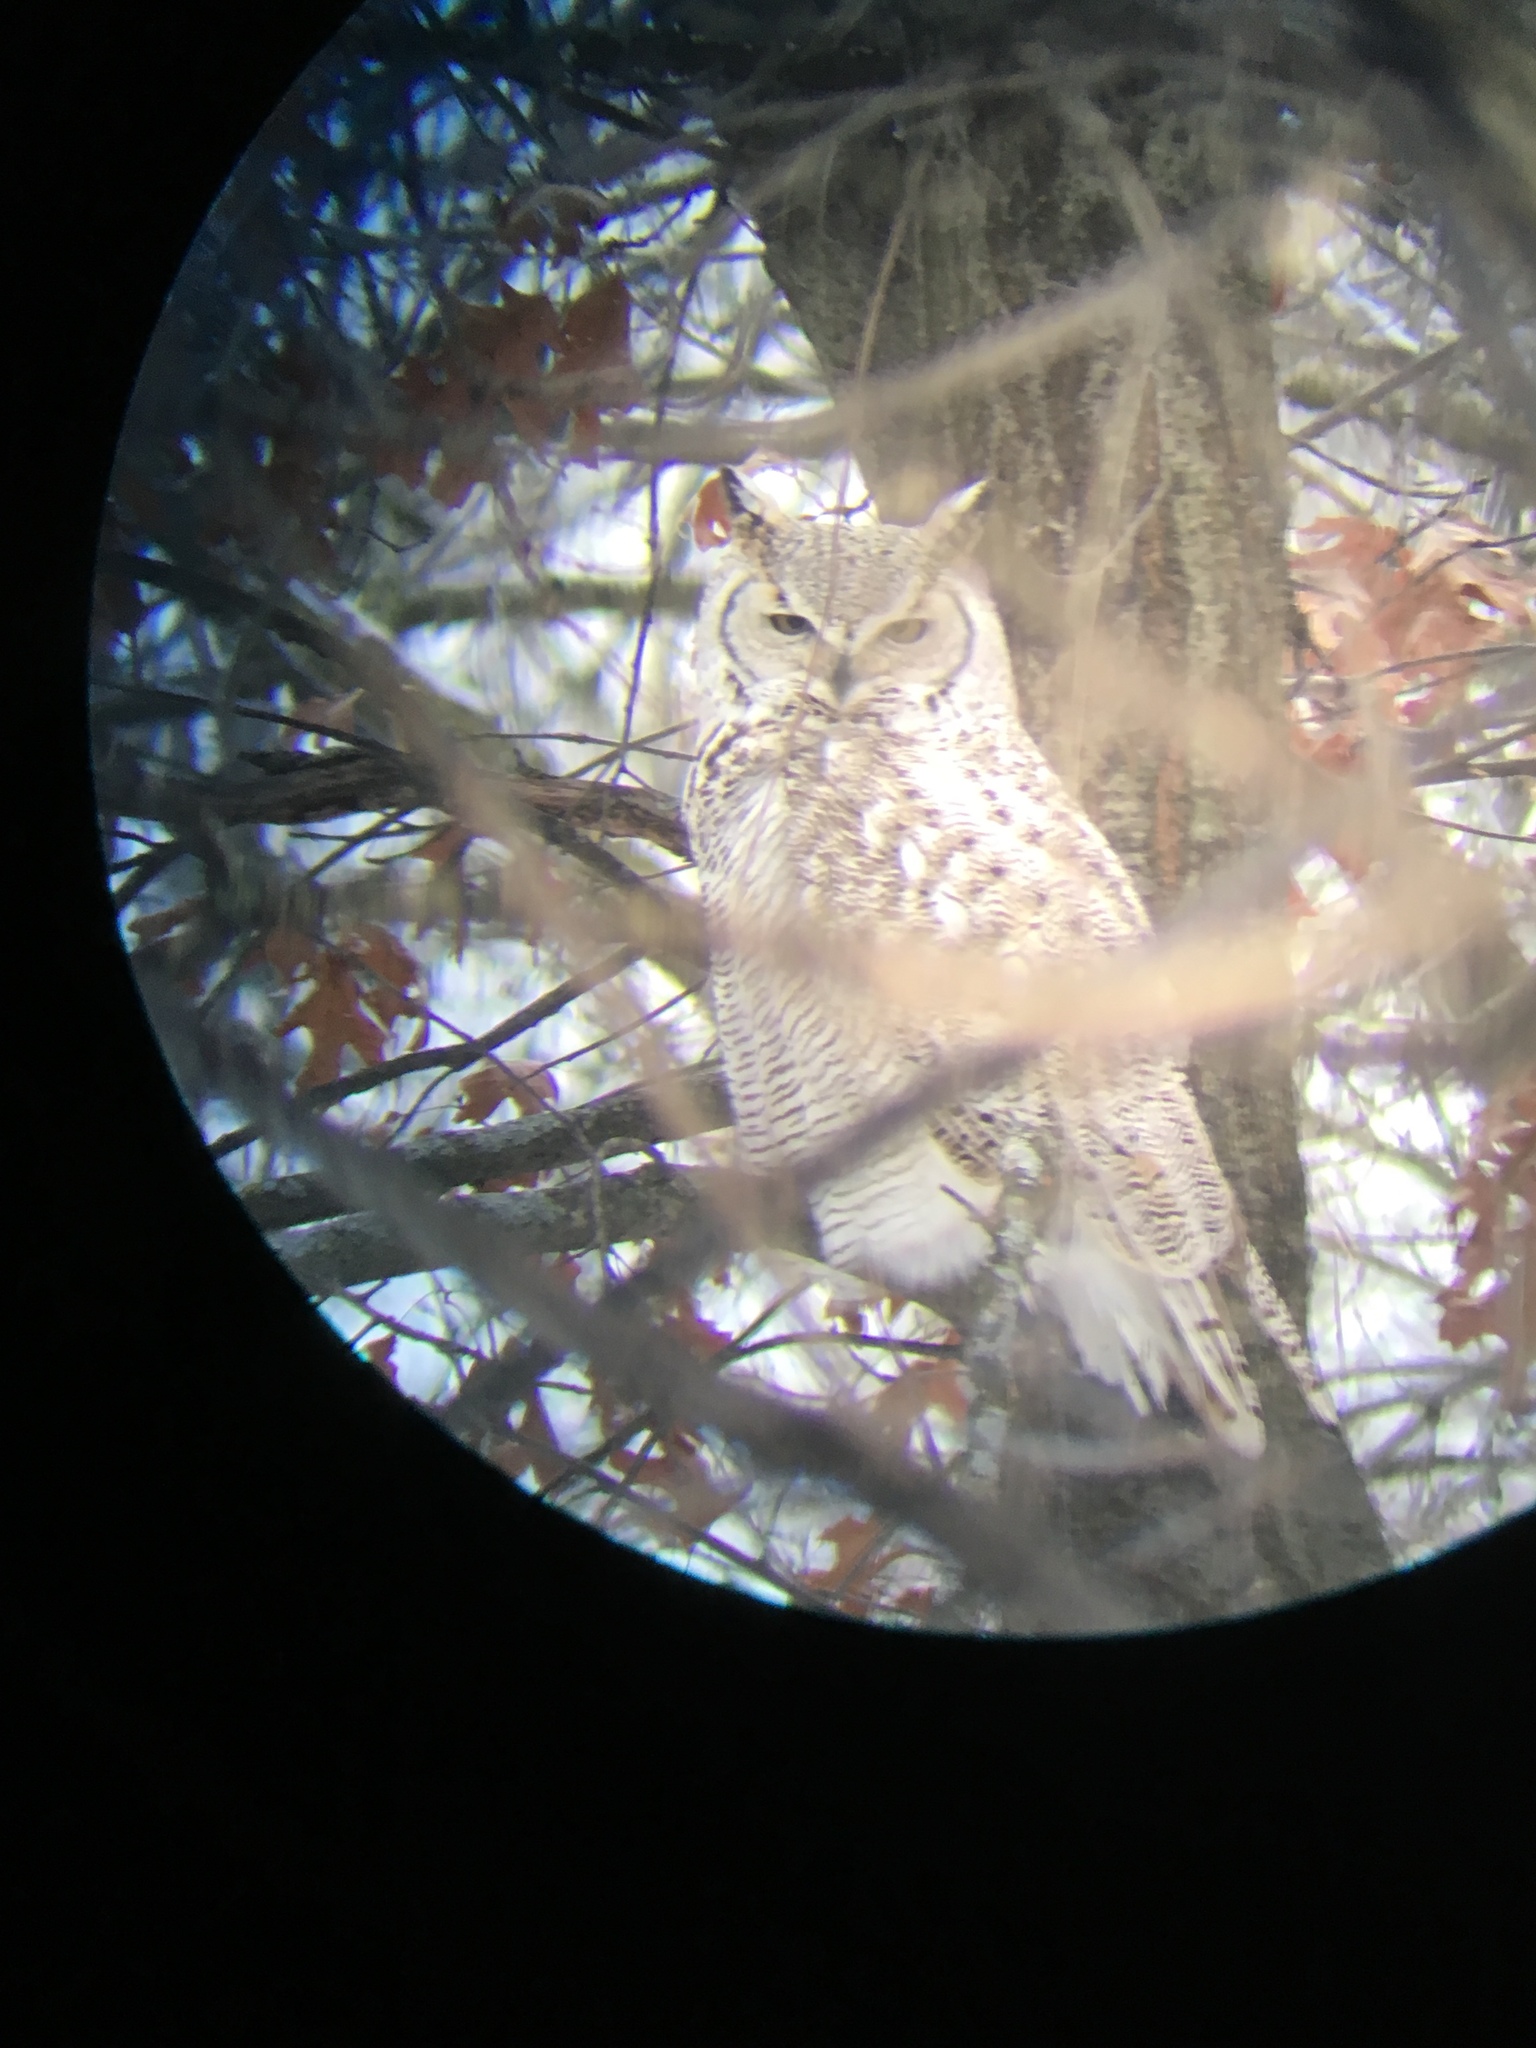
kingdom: Animalia
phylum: Chordata
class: Aves
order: Strigiformes
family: Strigidae
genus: Bubo
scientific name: Bubo virginianus
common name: Great horned owl
